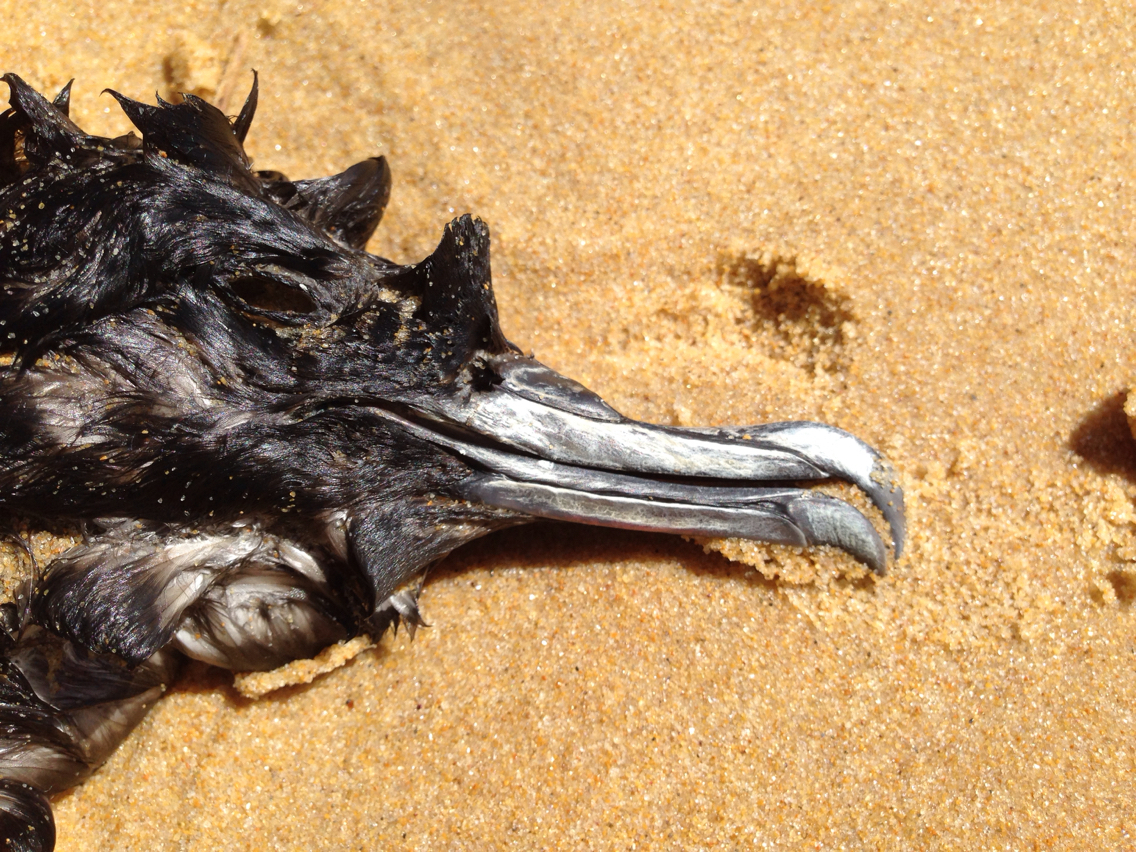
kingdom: Animalia
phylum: Chordata
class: Aves
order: Procellariiformes
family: Procellariidae
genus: Puffinus
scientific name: Puffinus tenuirostris
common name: Short-tailed shearwater
